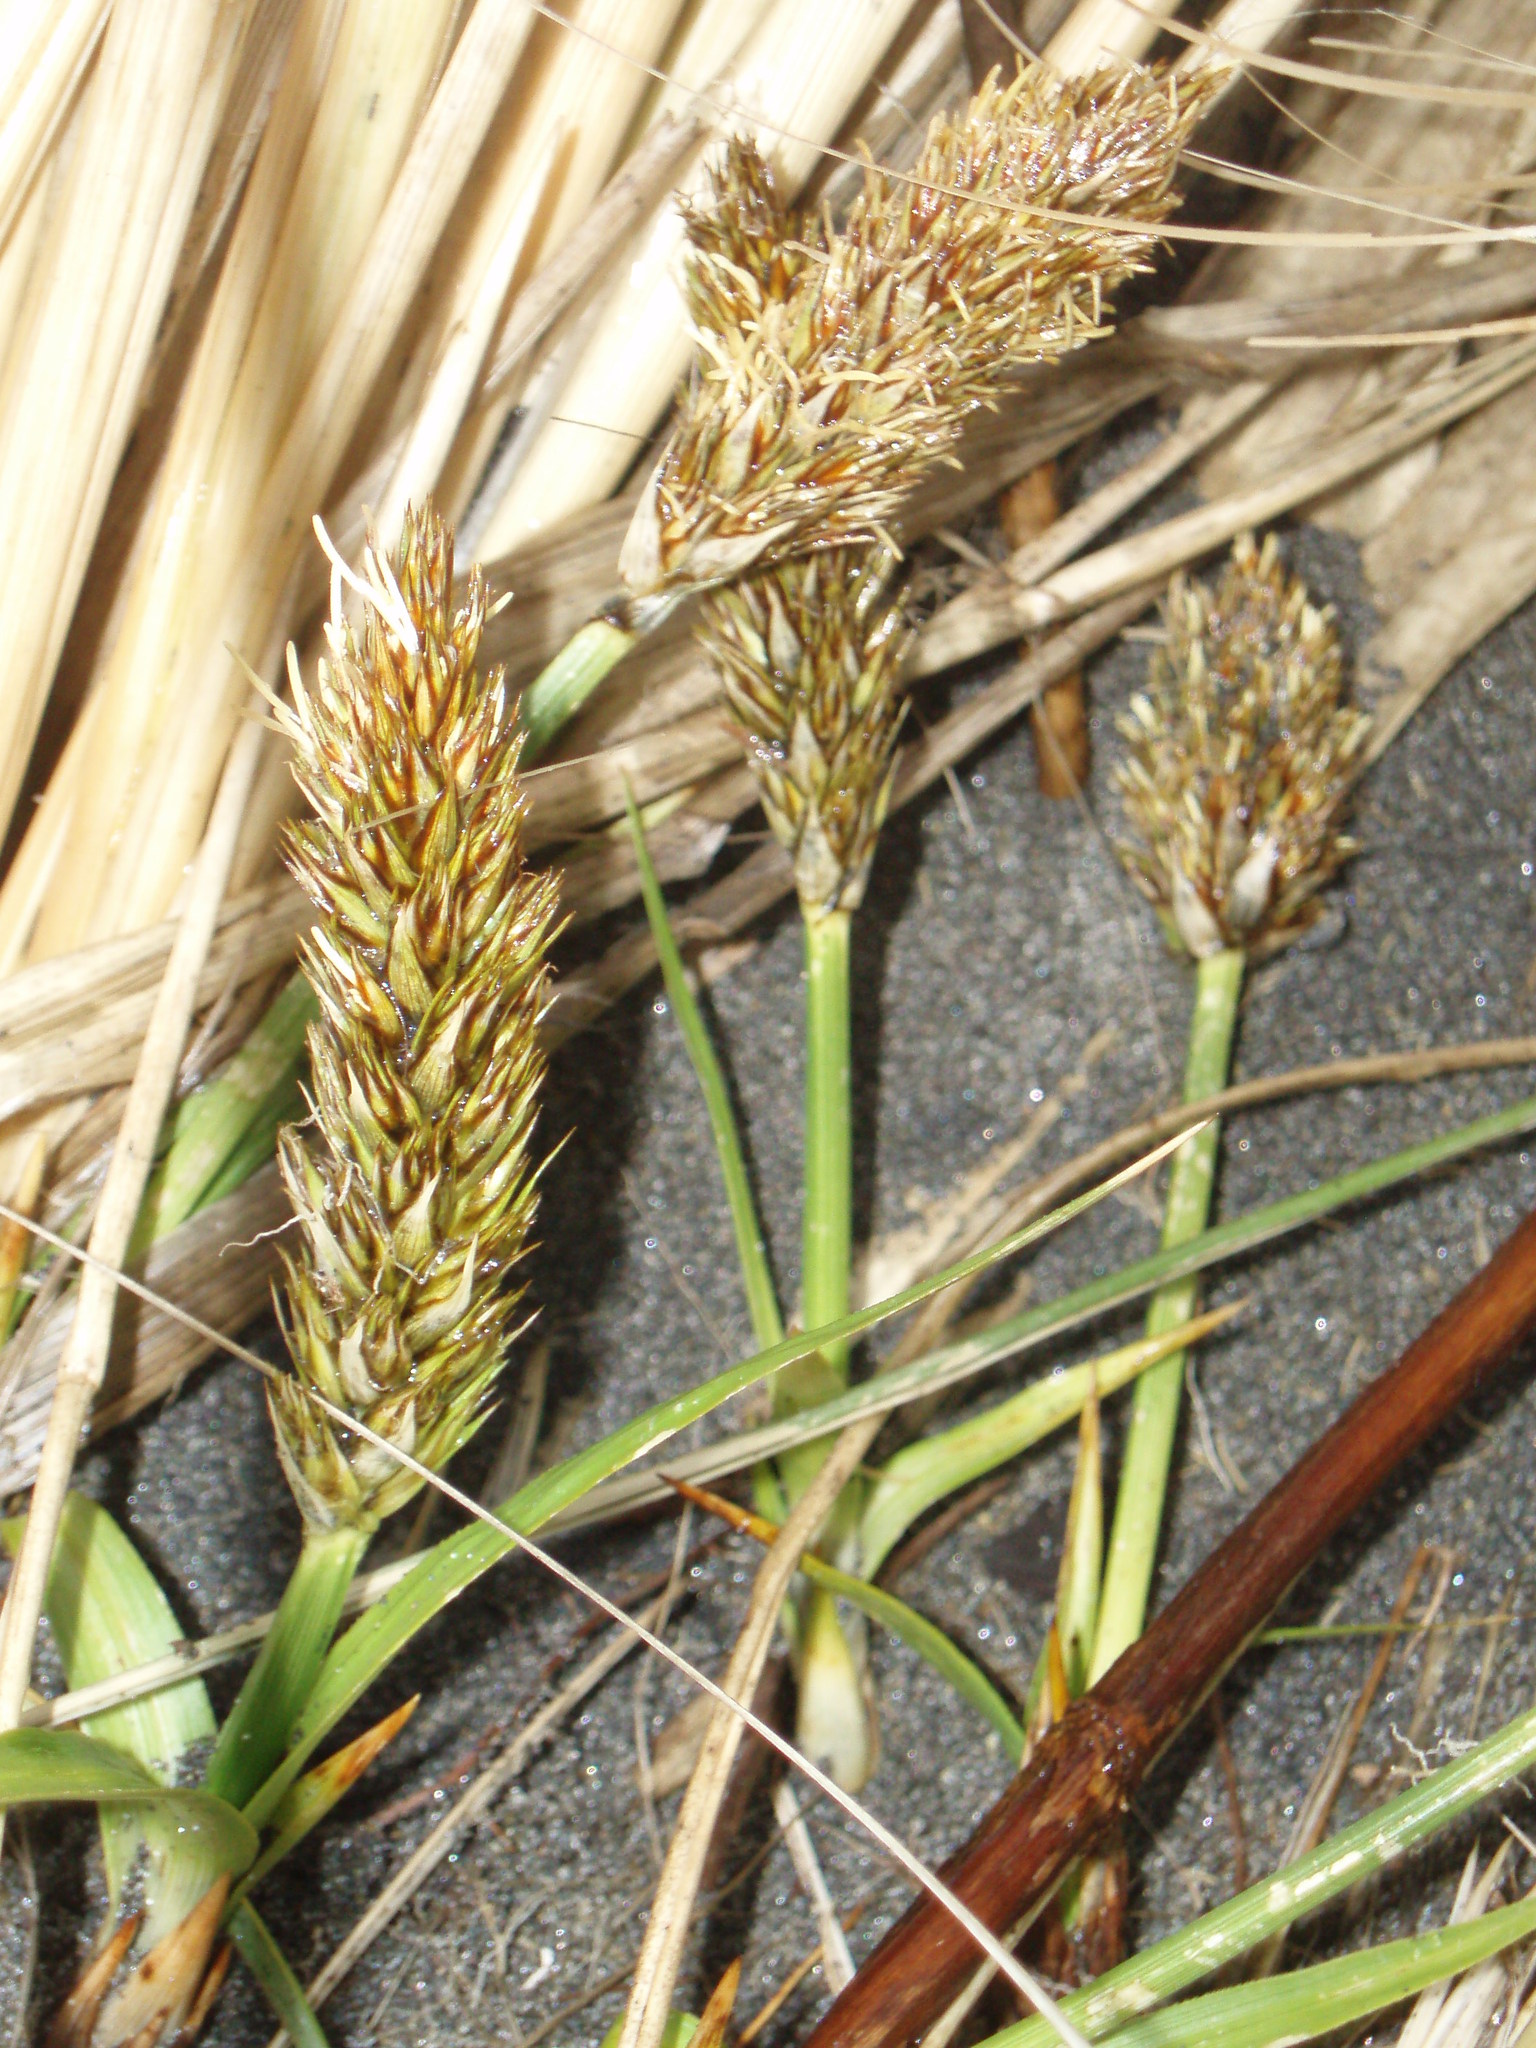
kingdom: Plantae
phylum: Tracheophyta
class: Liliopsida
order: Poales
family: Cyperaceae
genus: Carex
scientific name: Carex kobomugi
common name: Japanese sedge
